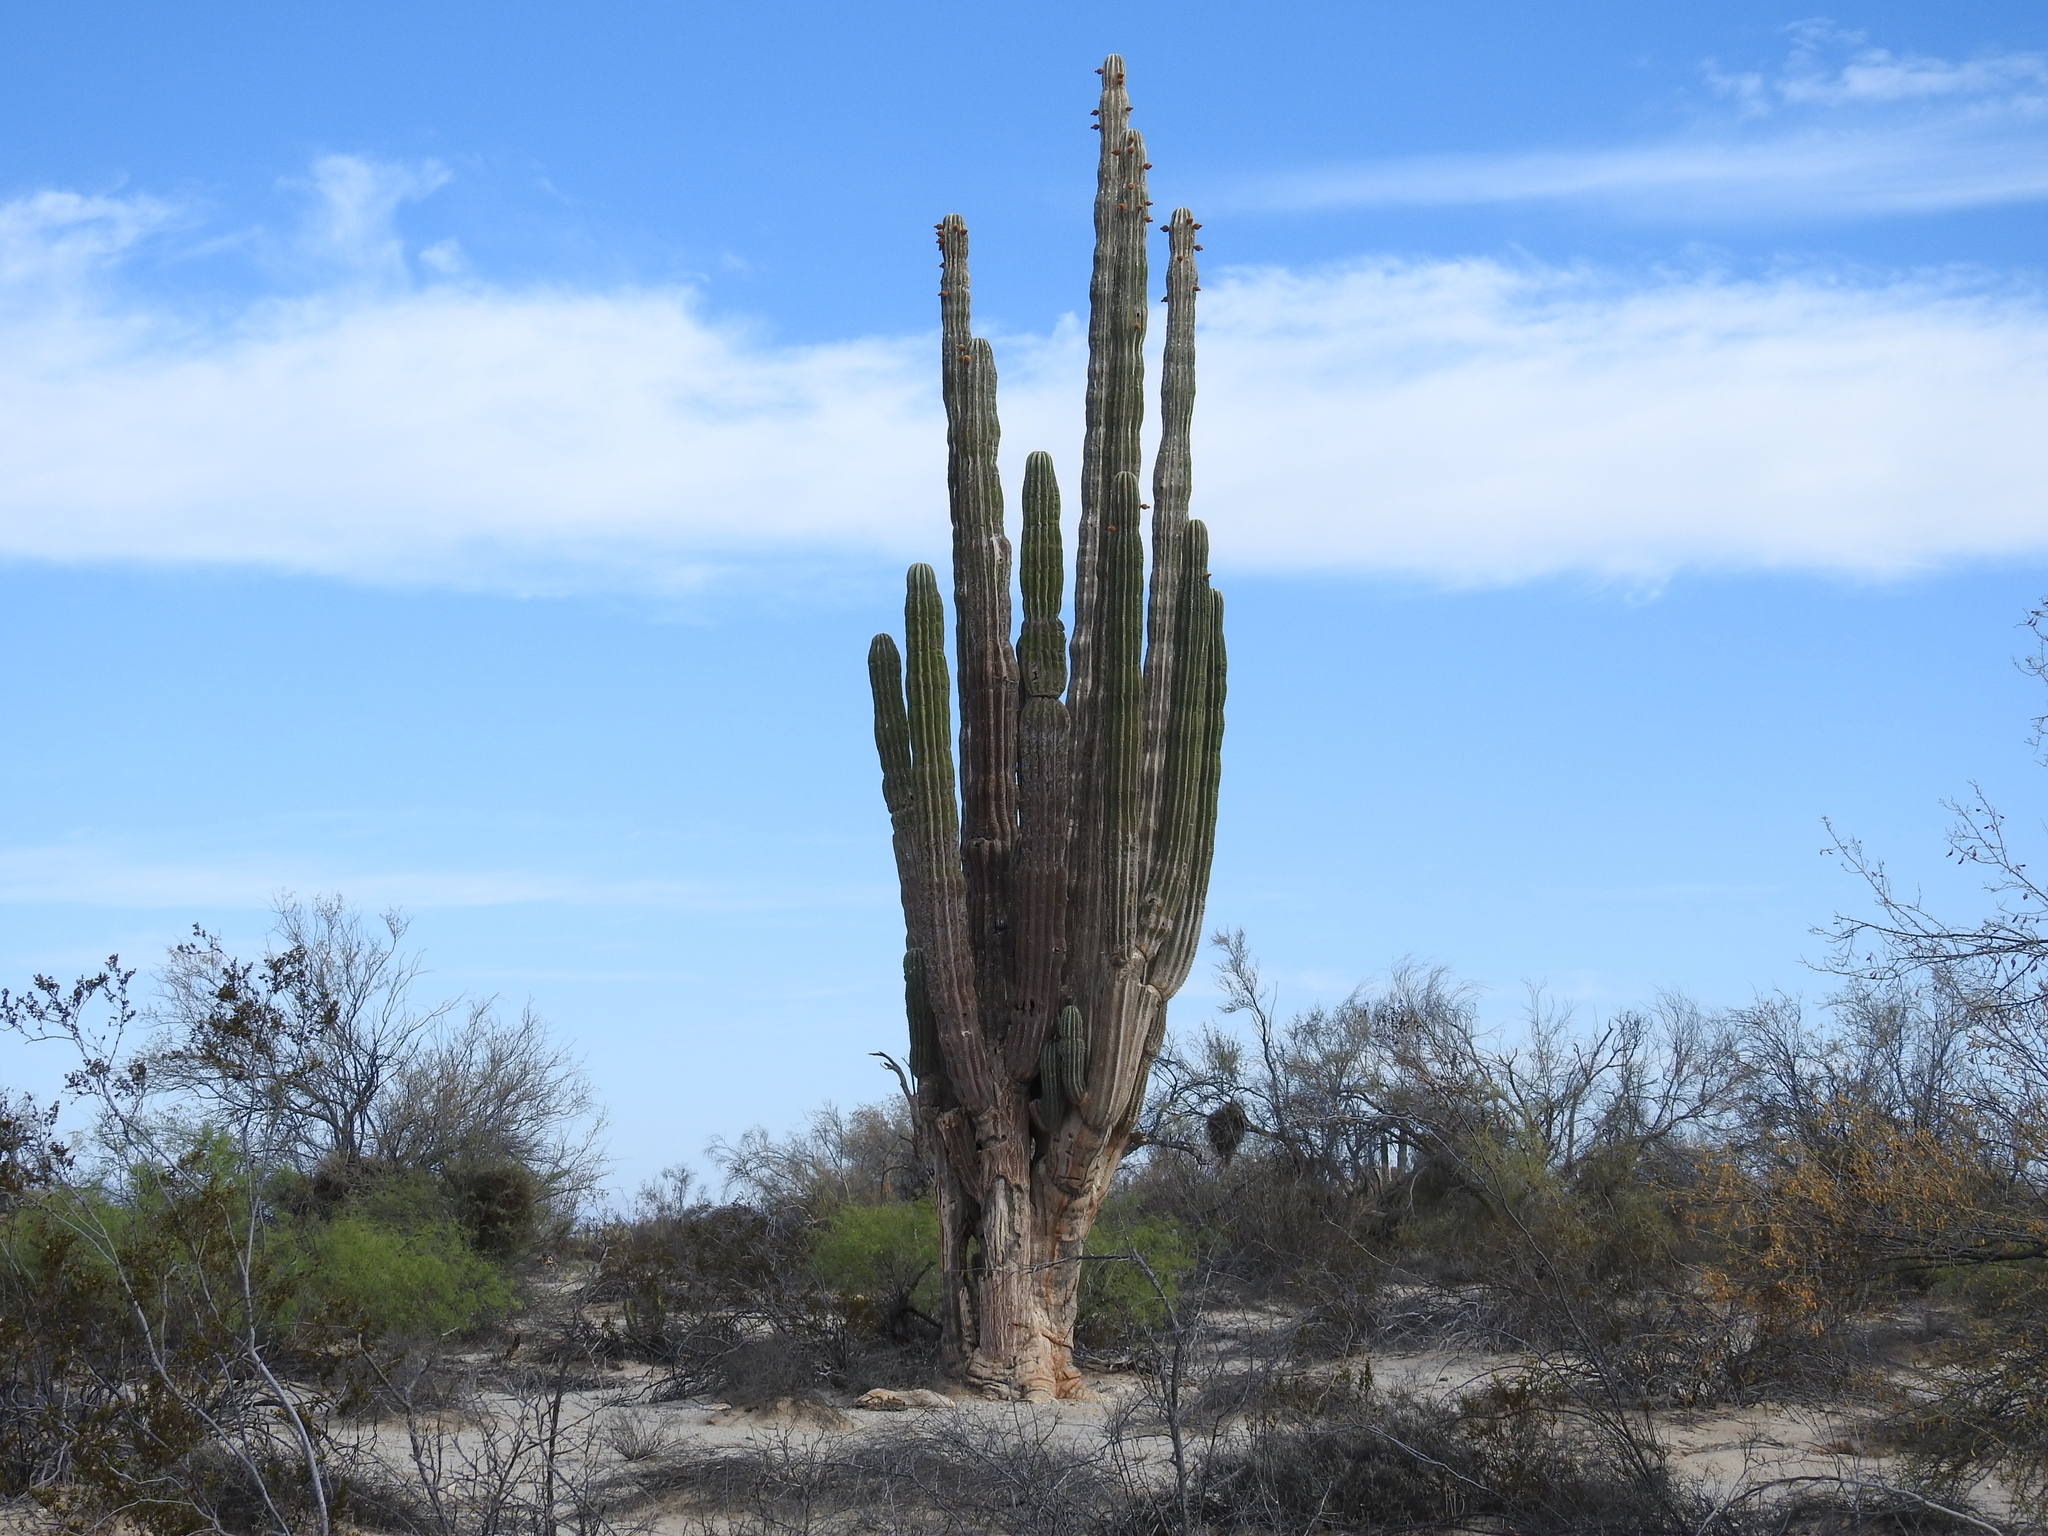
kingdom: Plantae
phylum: Tracheophyta
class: Magnoliopsida
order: Caryophyllales
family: Cactaceae
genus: Pachycereus
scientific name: Pachycereus pringlei
